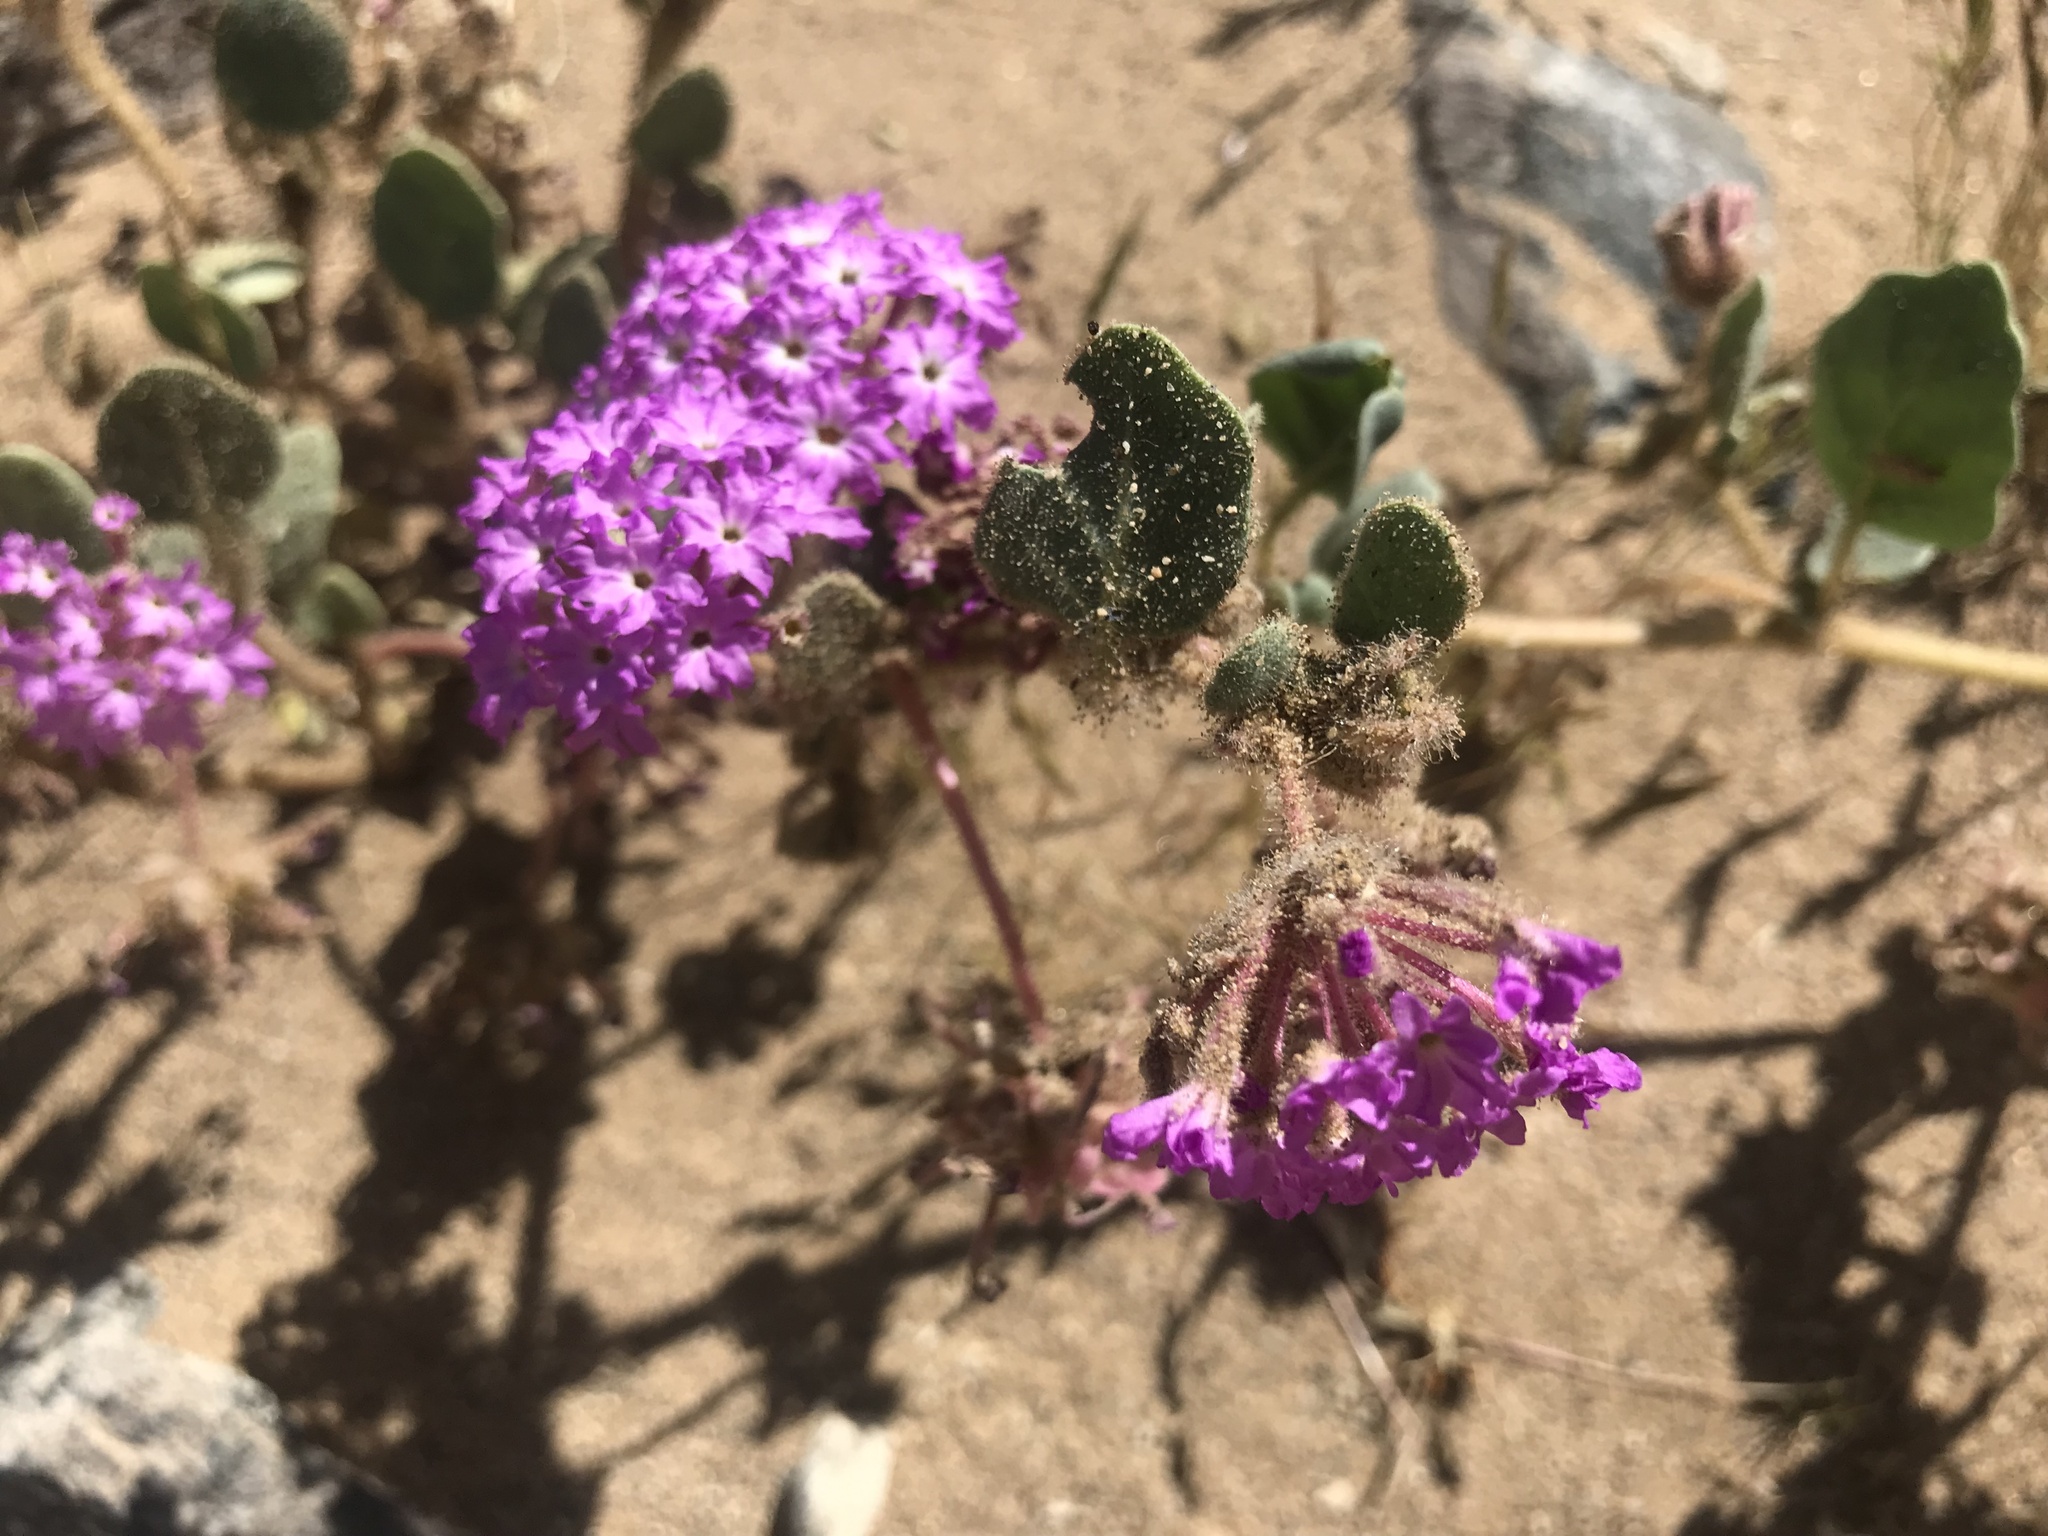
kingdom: Plantae
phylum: Tracheophyta
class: Magnoliopsida
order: Caryophyllales
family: Nyctaginaceae
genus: Abronia
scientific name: Abronia villosa
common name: Desert sand-verbena
